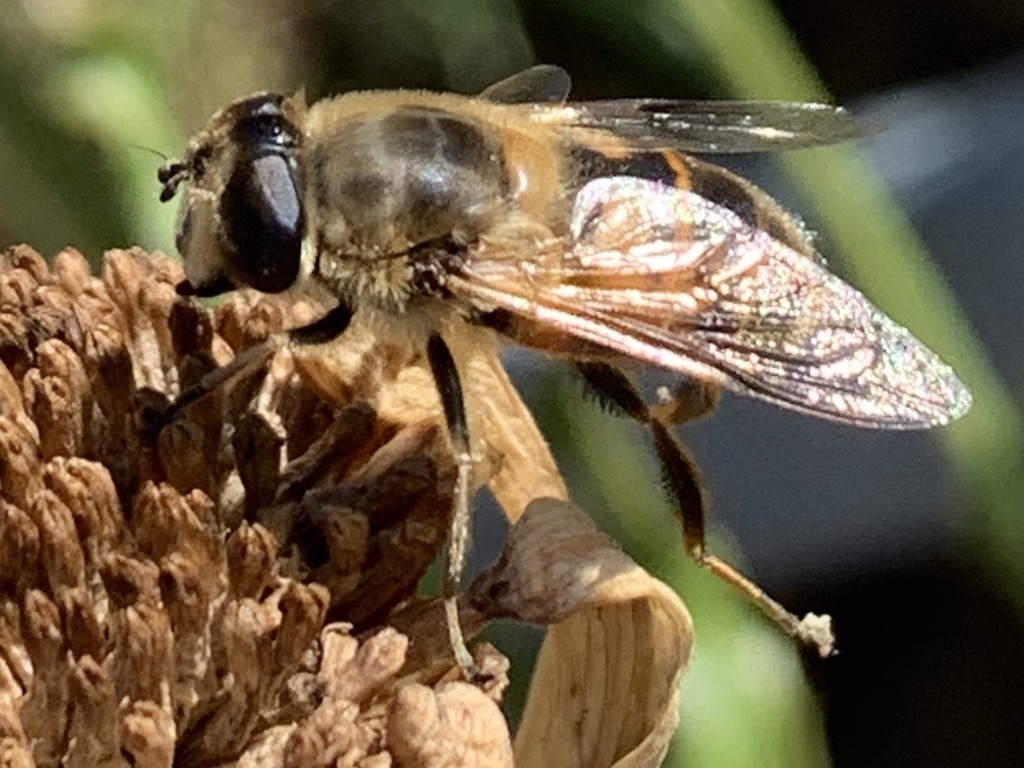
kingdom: Animalia
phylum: Arthropoda
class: Insecta
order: Diptera
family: Syrphidae
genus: Eristalis
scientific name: Eristalis tenax
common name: Drone fly
